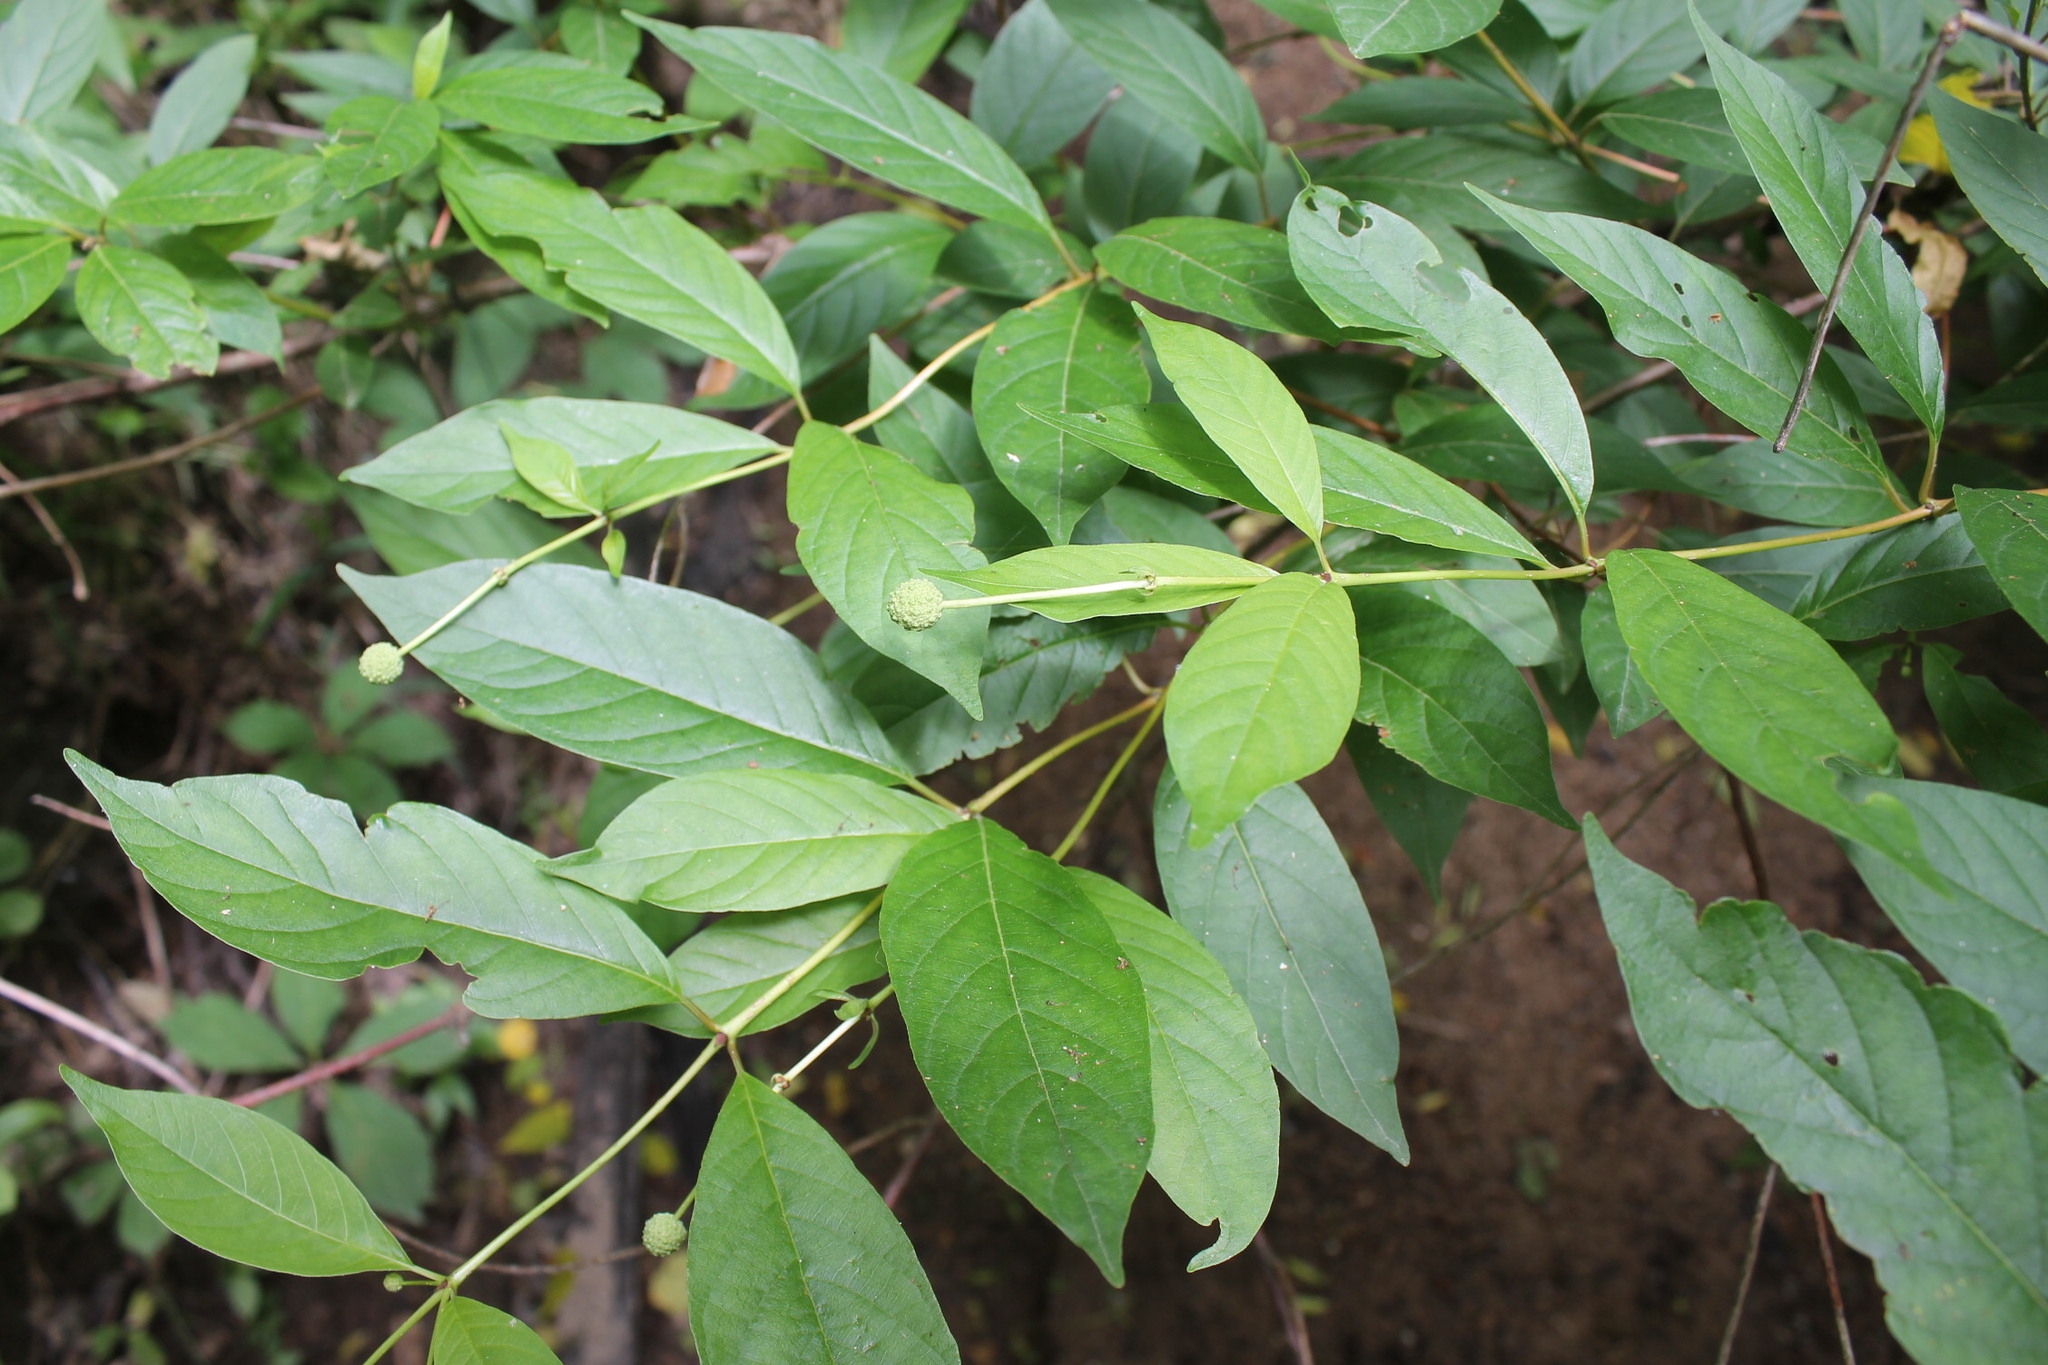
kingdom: Plantae
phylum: Tracheophyta
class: Magnoliopsida
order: Gentianales
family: Rubiaceae
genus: Cephalanthus
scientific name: Cephalanthus occidentalis
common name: Button-willow
